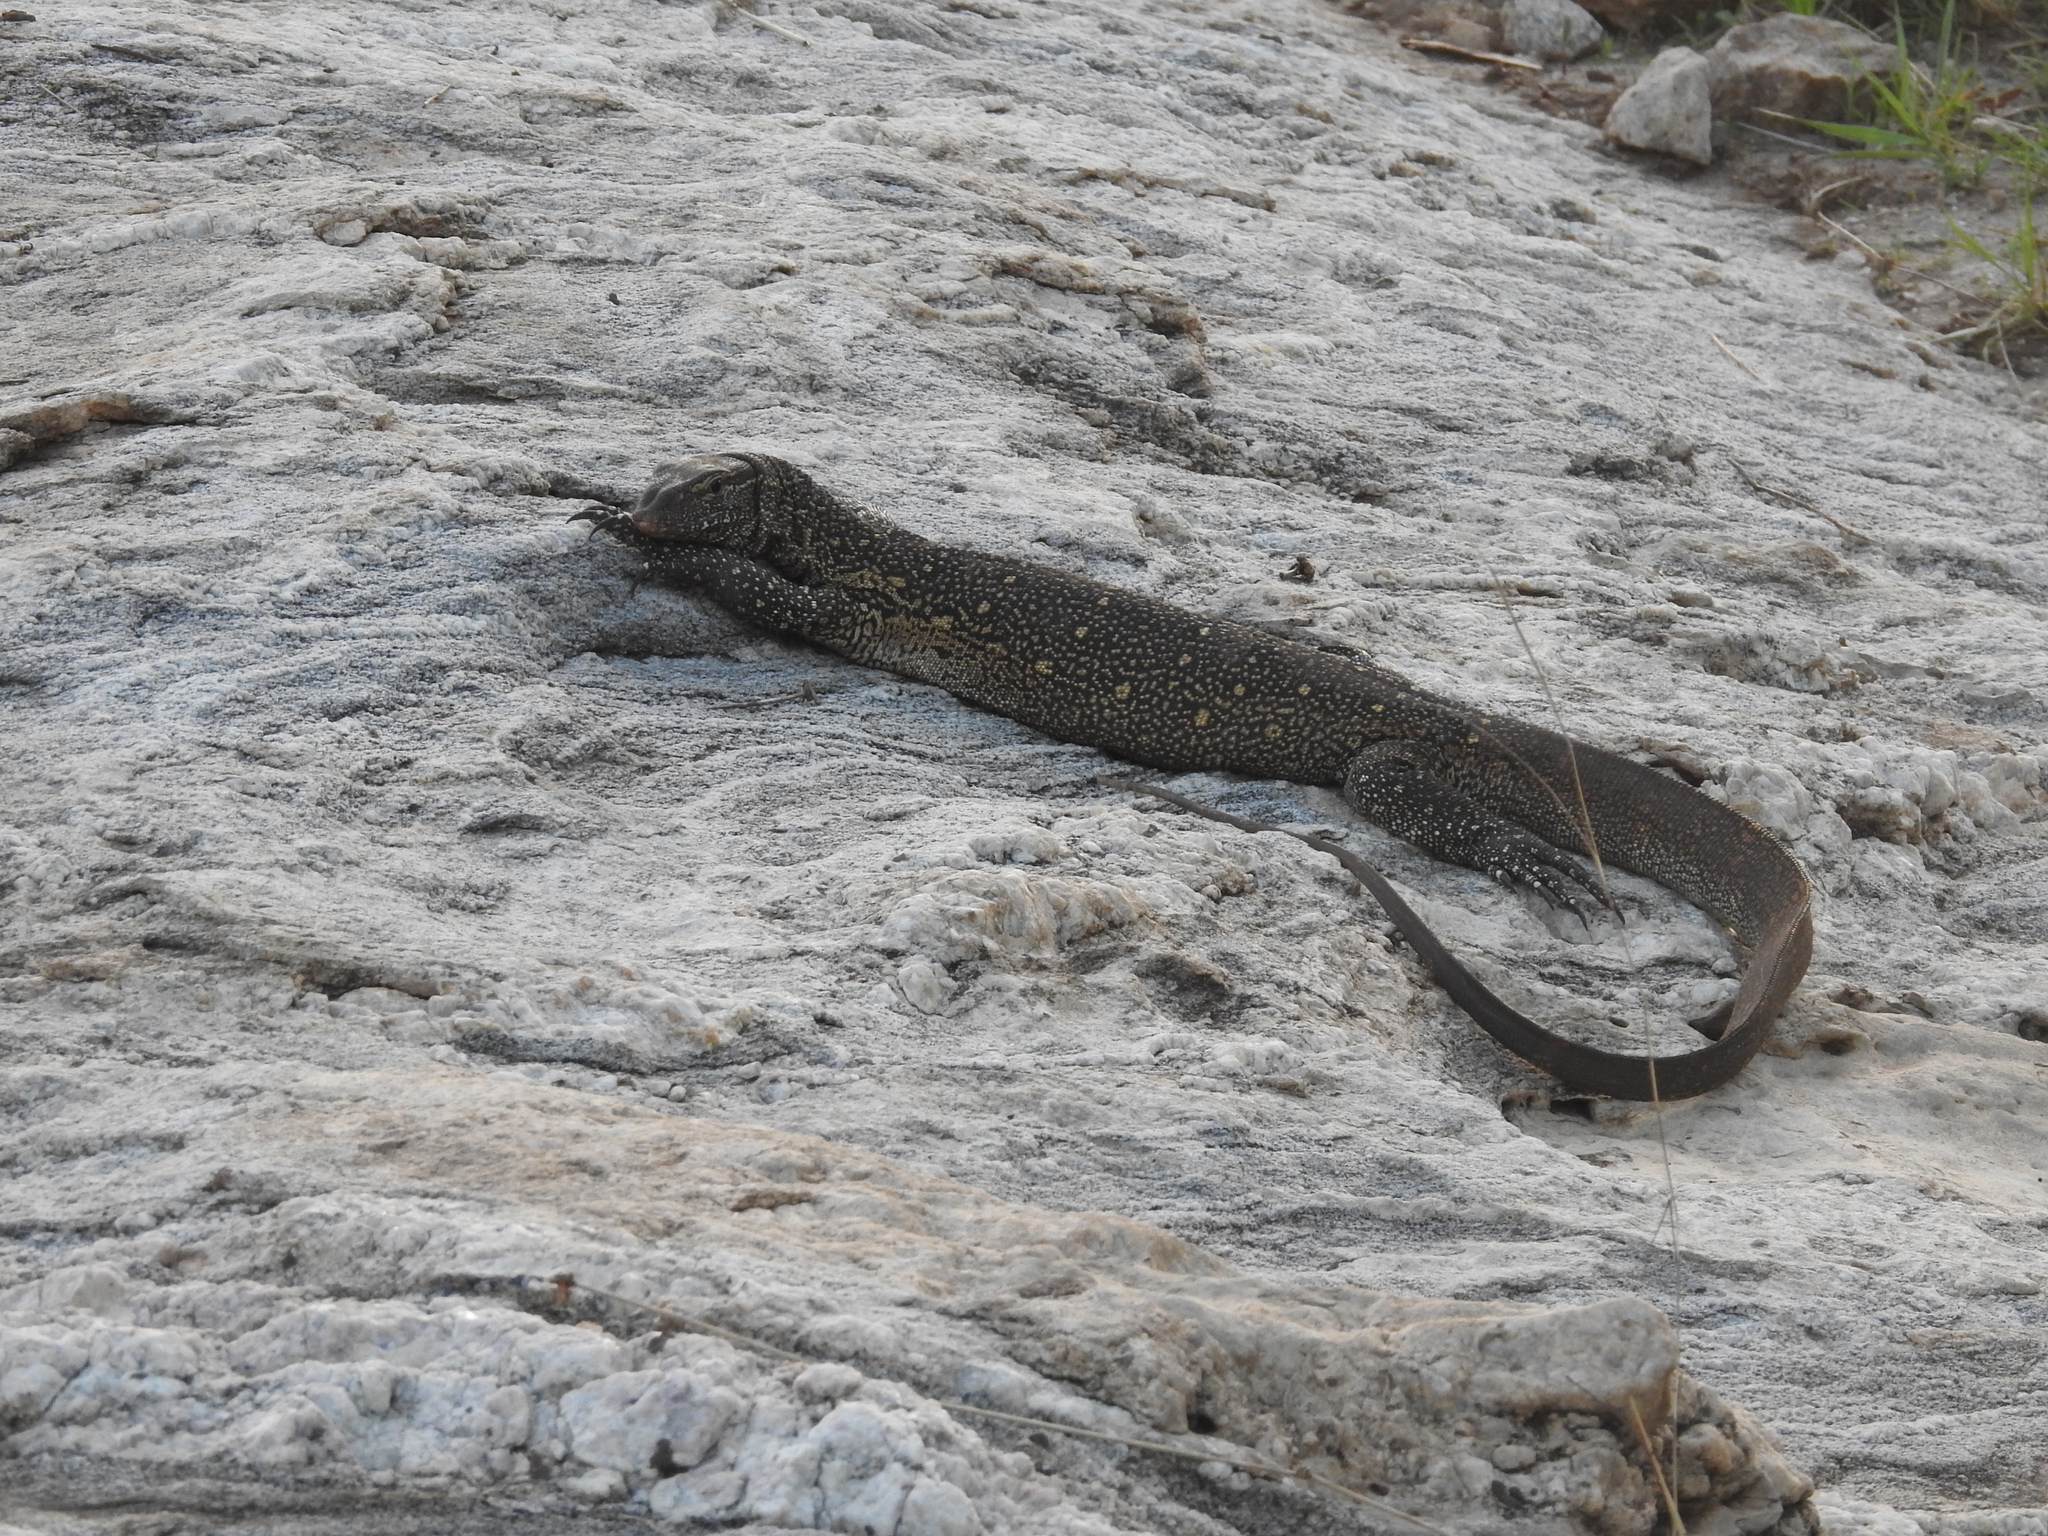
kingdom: Animalia
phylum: Chordata
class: Squamata
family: Varanidae
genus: Varanus
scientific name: Varanus niloticus
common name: Nile monitor
